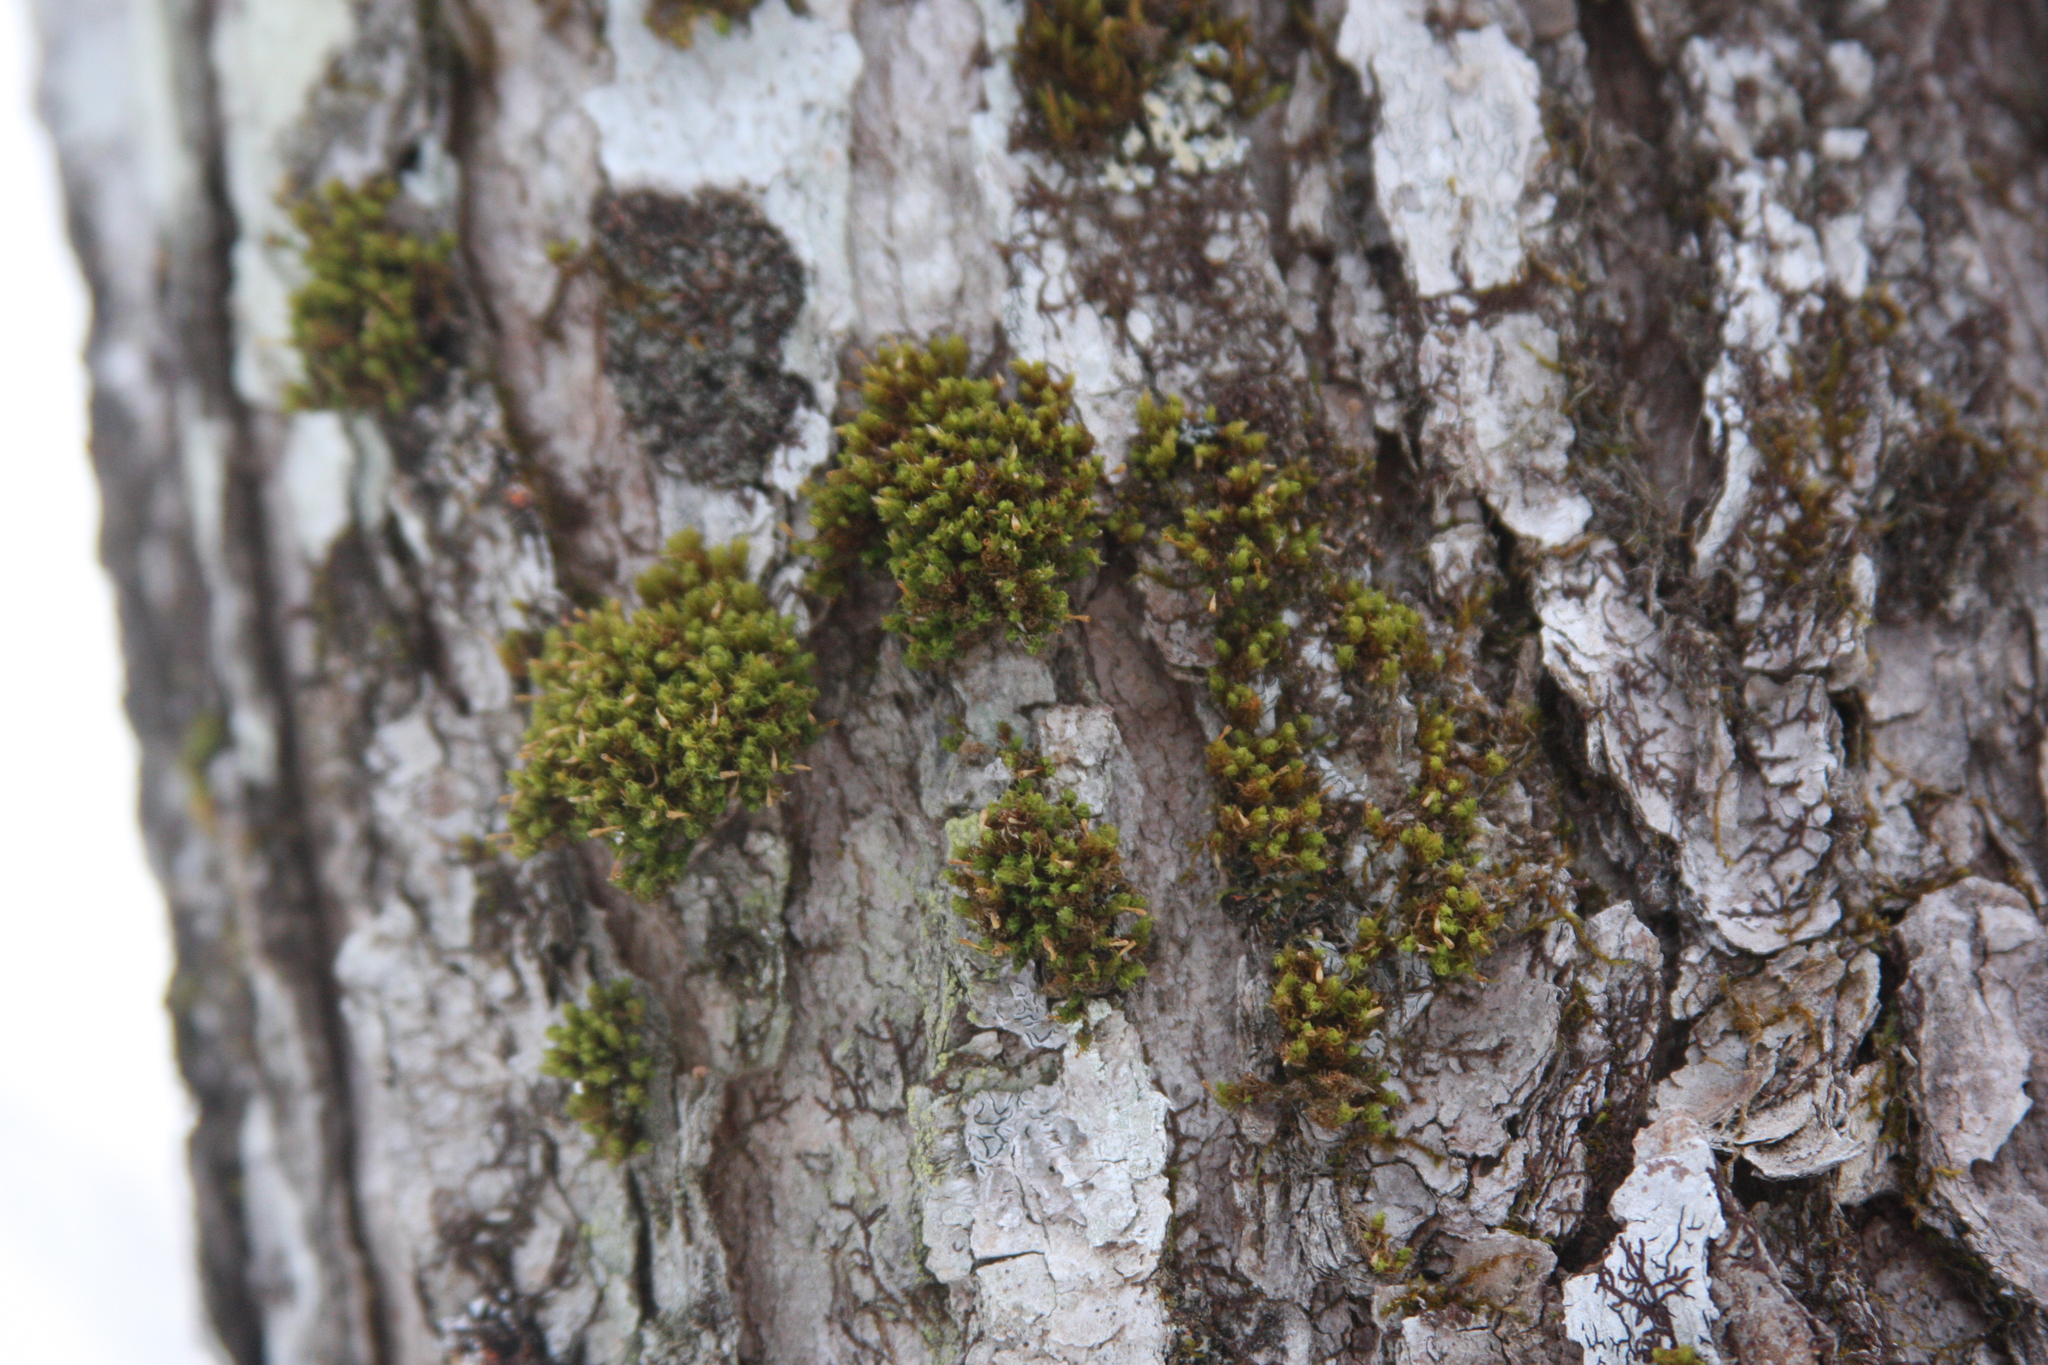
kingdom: Plantae
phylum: Bryophyta
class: Bryopsida
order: Orthotrichales
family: Orthotrichaceae
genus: Ulota
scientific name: Ulota crispa
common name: Crisped pincushion moss
